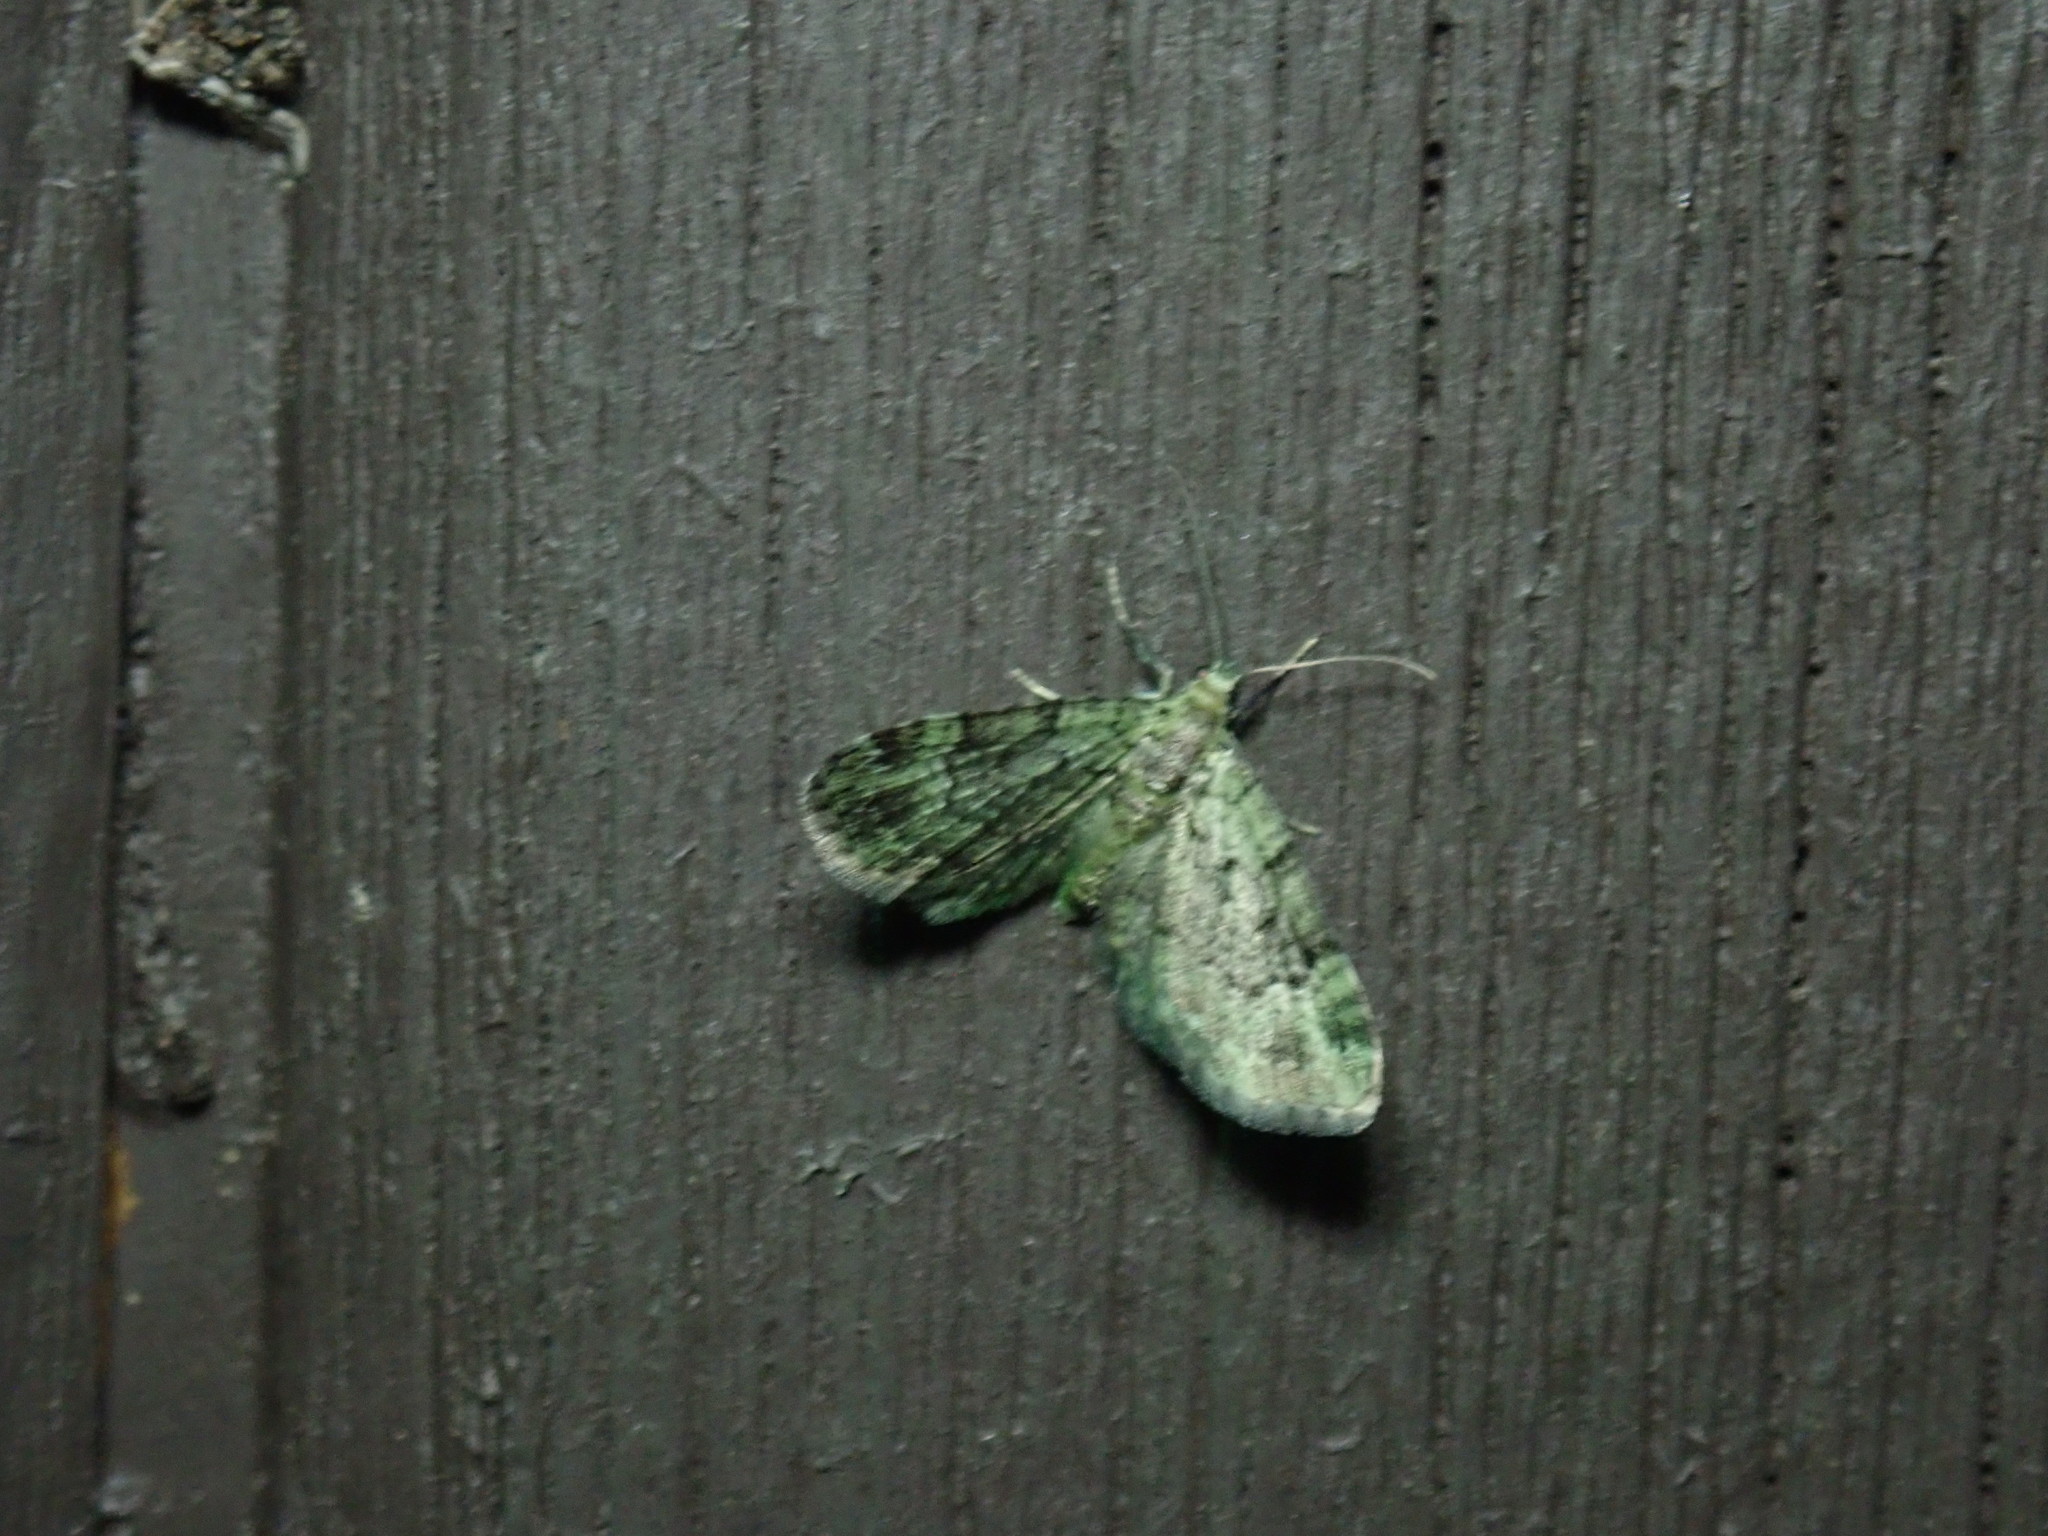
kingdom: Animalia
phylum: Arthropoda
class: Insecta
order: Lepidoptera
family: Geometridae
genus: Pasiphila
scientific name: Pasiphila rectangulata
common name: Green pug
